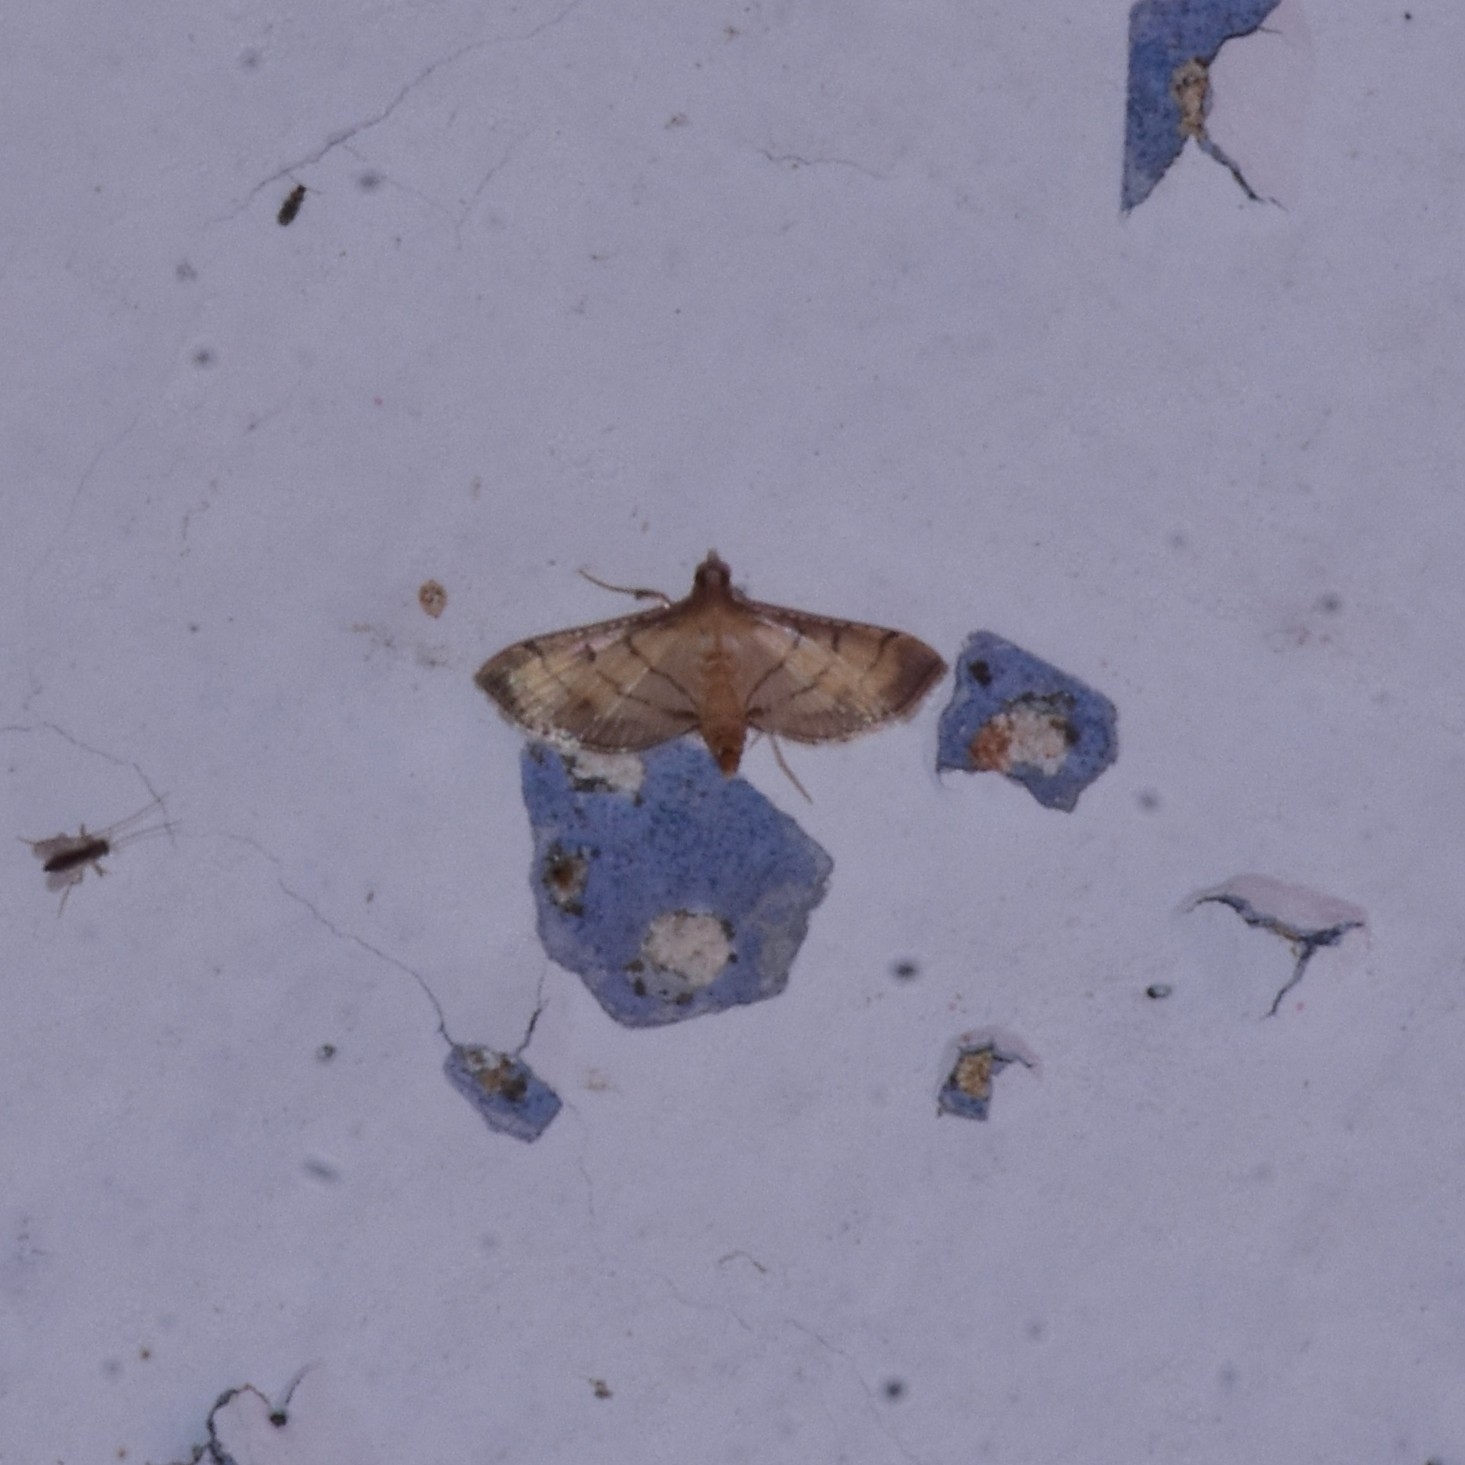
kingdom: Animalia
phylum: Arthropoda
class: Insecta
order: Lepidoptera
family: Crambidae
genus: Cnaphalocrocis
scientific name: Cnaphalocrocis poeyalis
